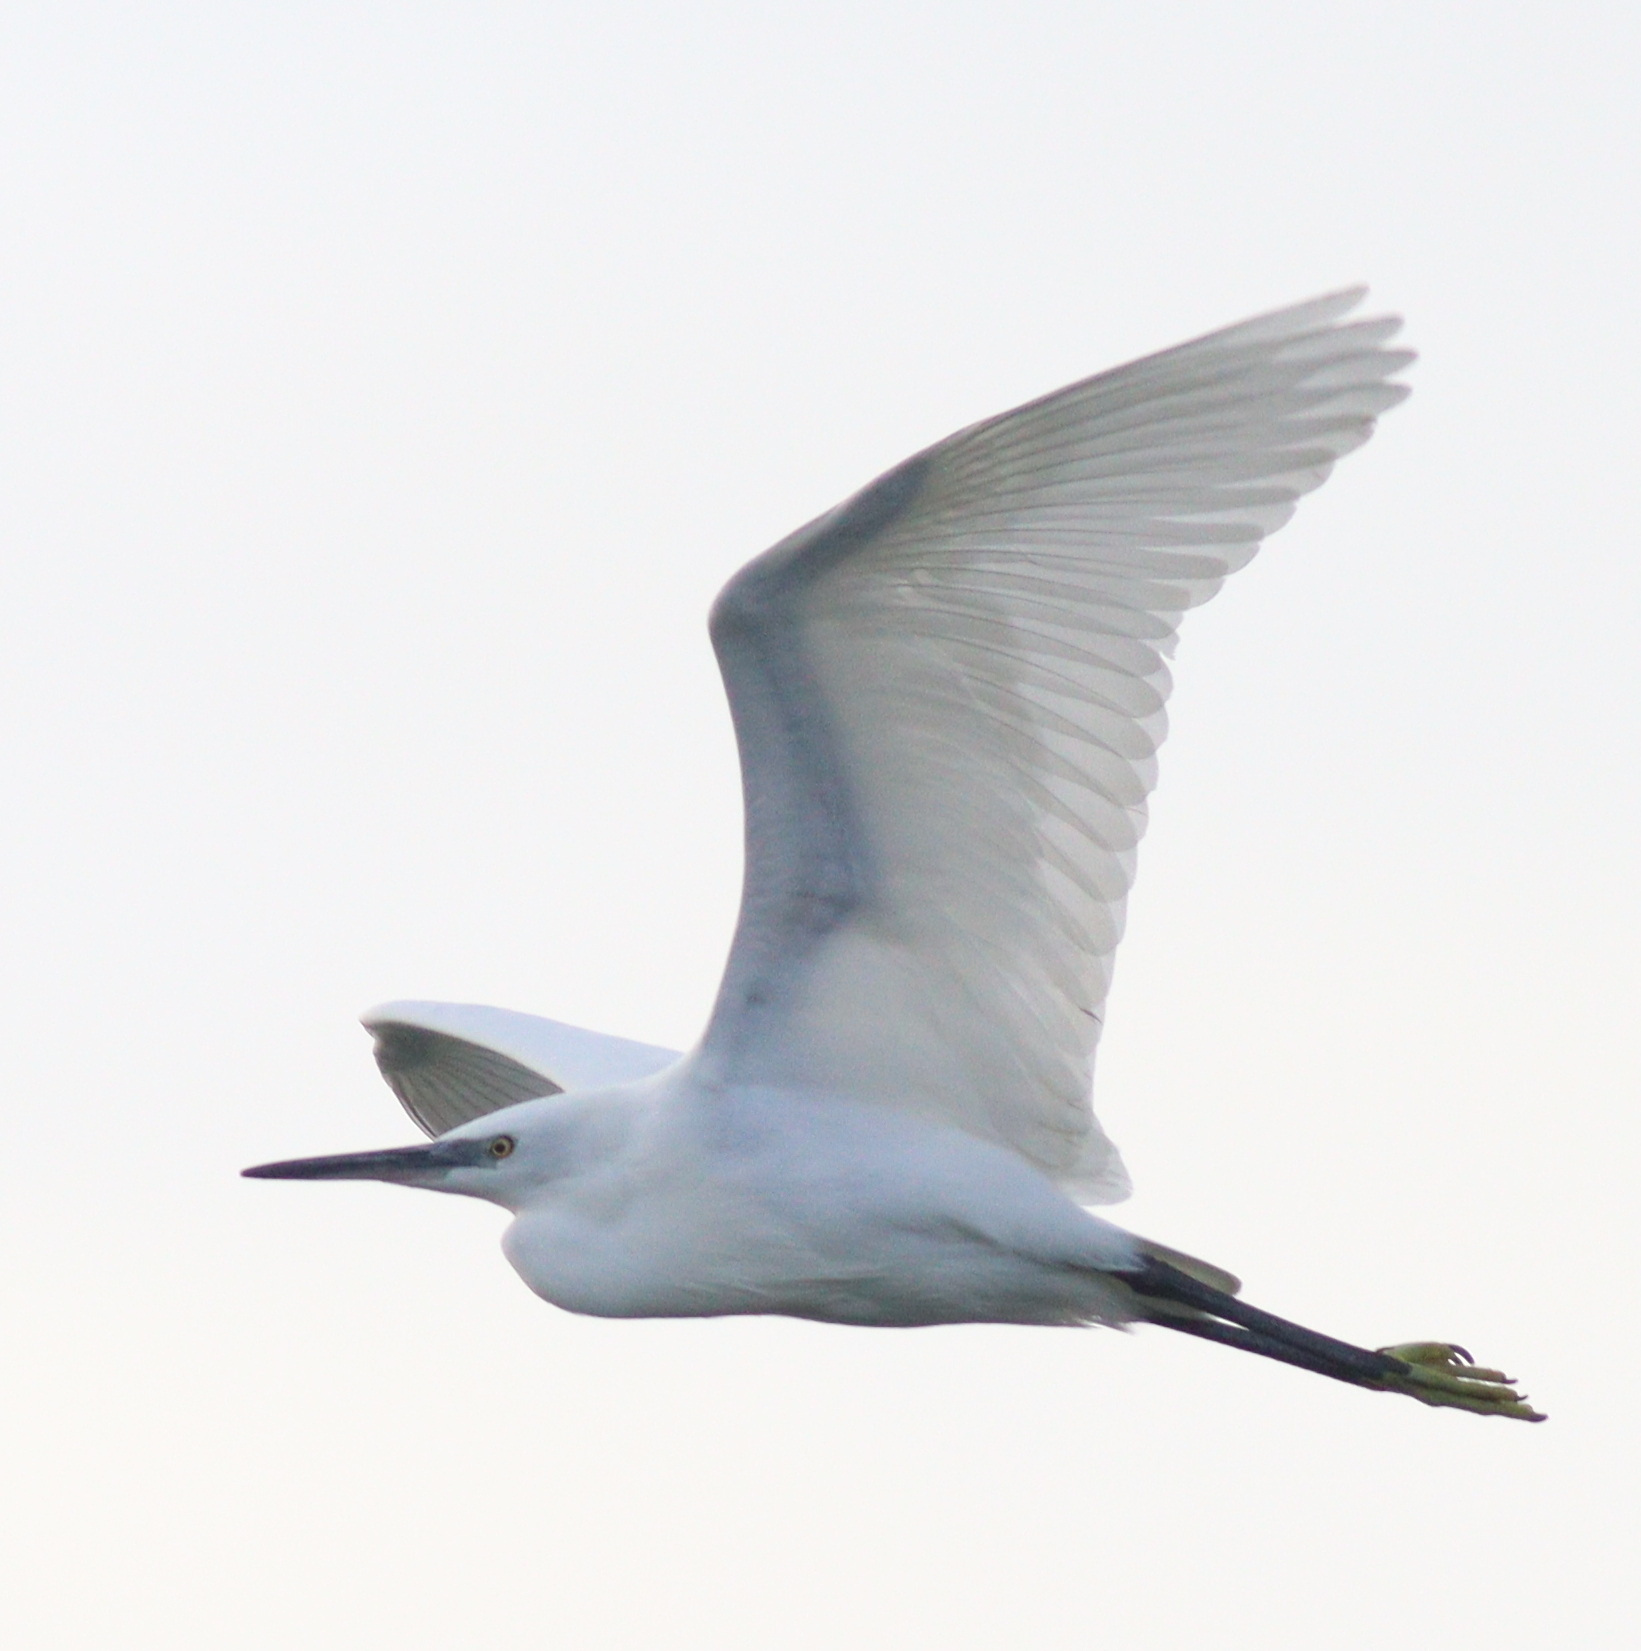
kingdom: Animalia
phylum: Chordata
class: Aves
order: Pelecaniformes
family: Ardeidae
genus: Egretta
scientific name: Egretta garzetta
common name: Little egret
